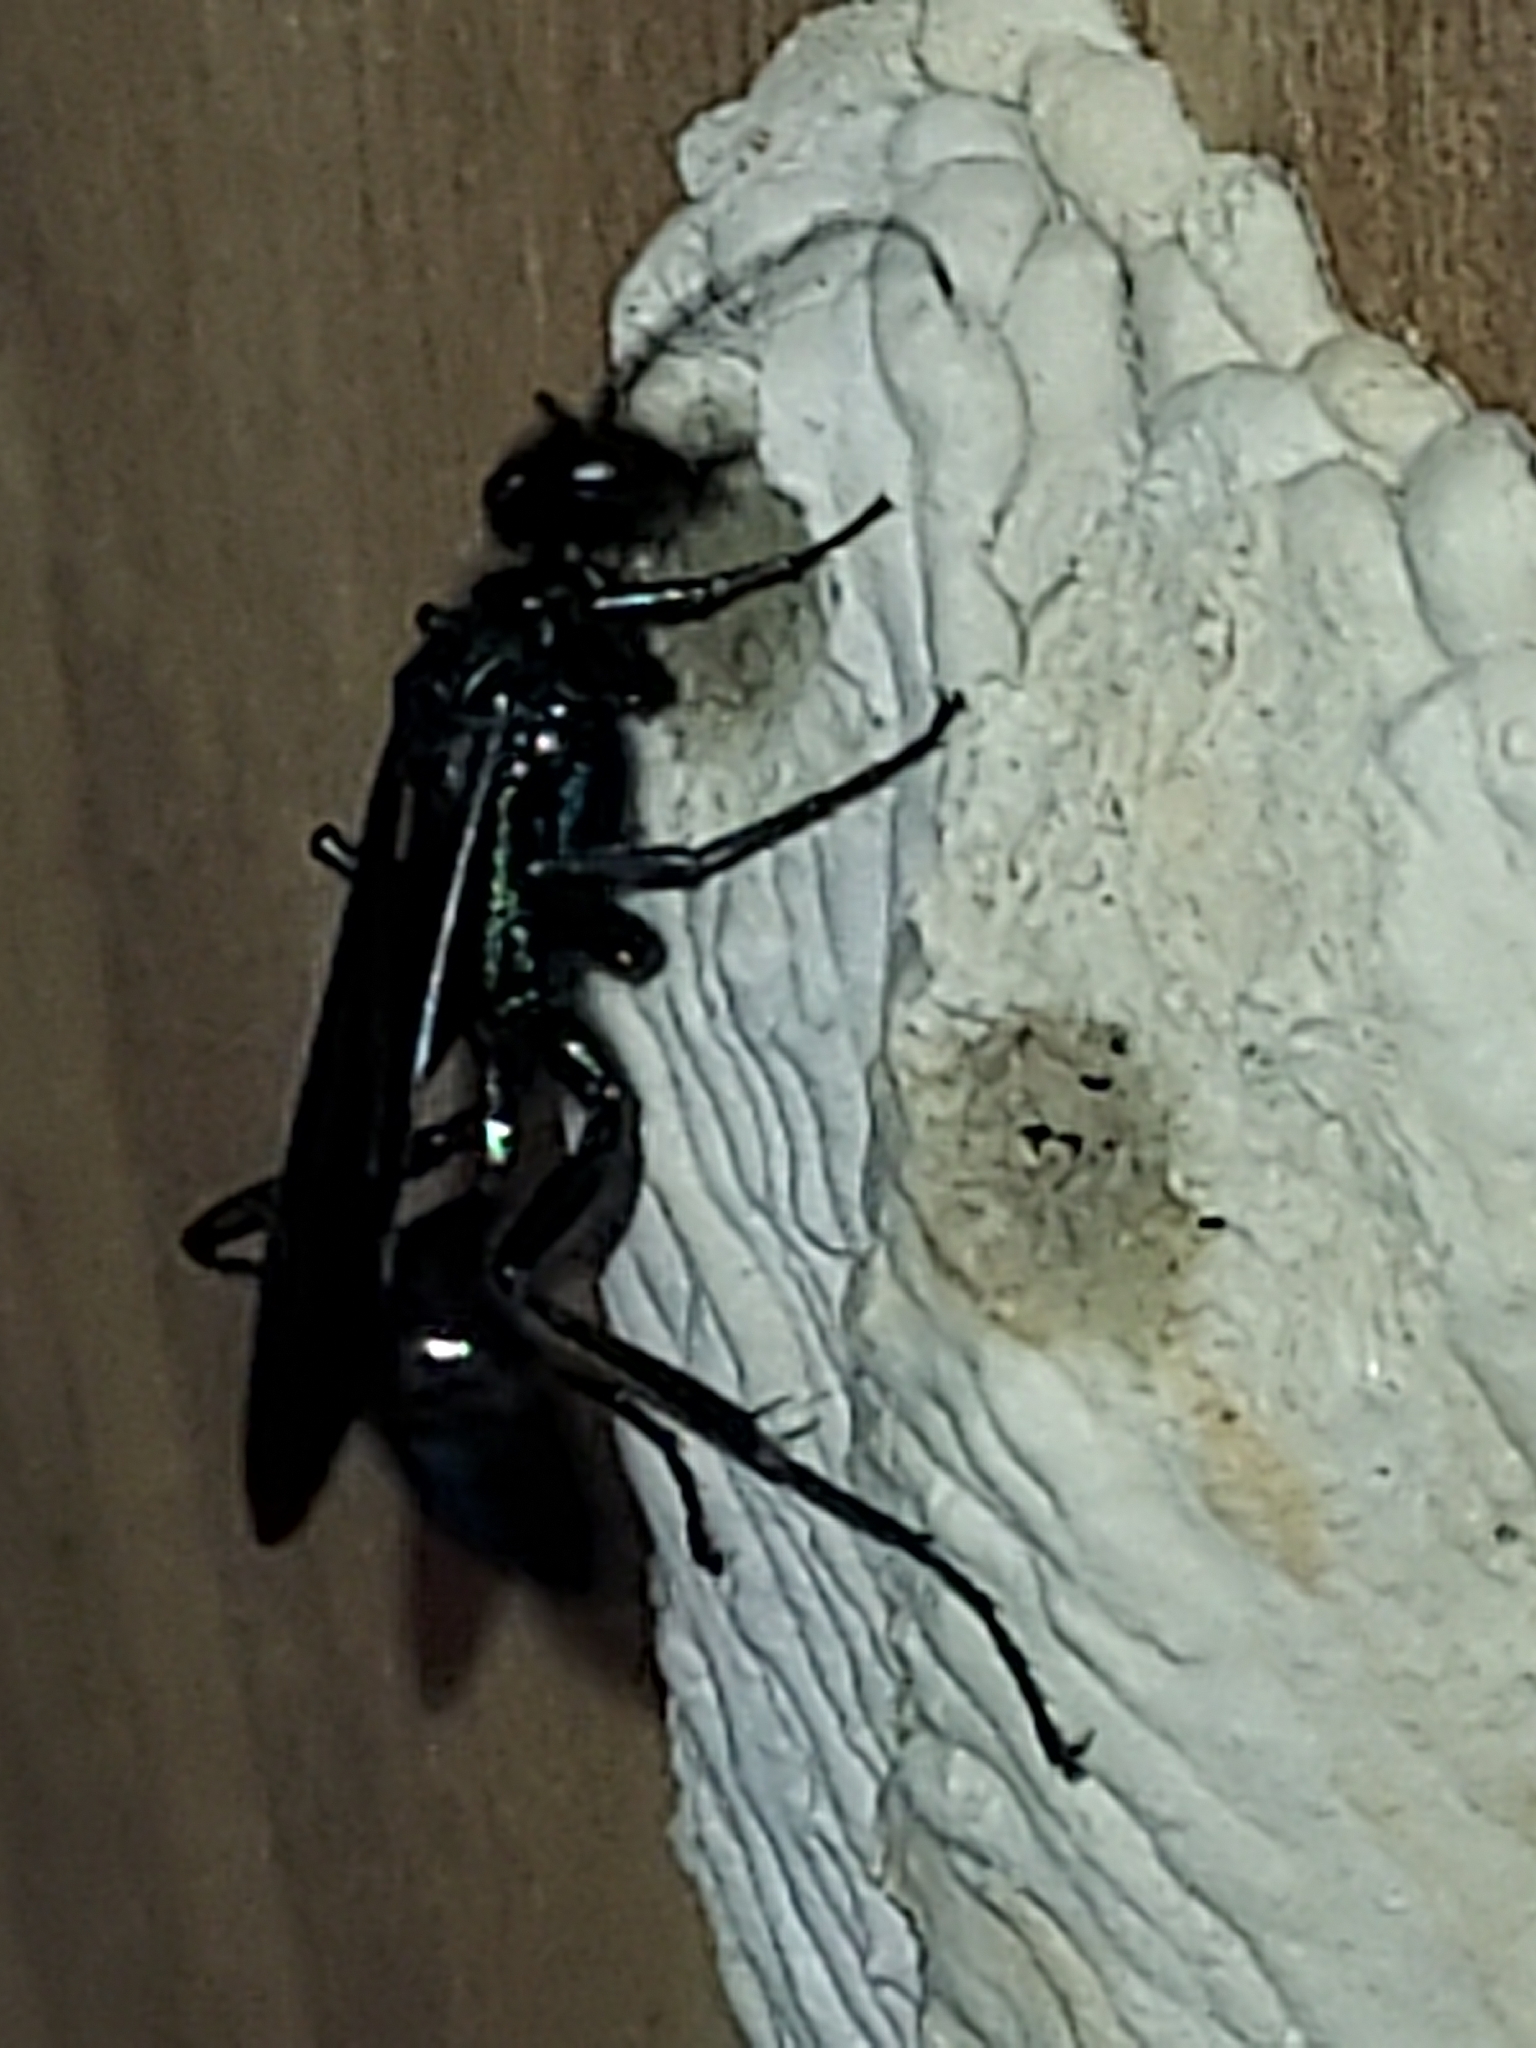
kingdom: Animalia
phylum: Arthropoda
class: Insecta
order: Hymenoptera
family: Sphecidae
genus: Chalybion
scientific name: Chalybion californicum
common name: Mud dauber
